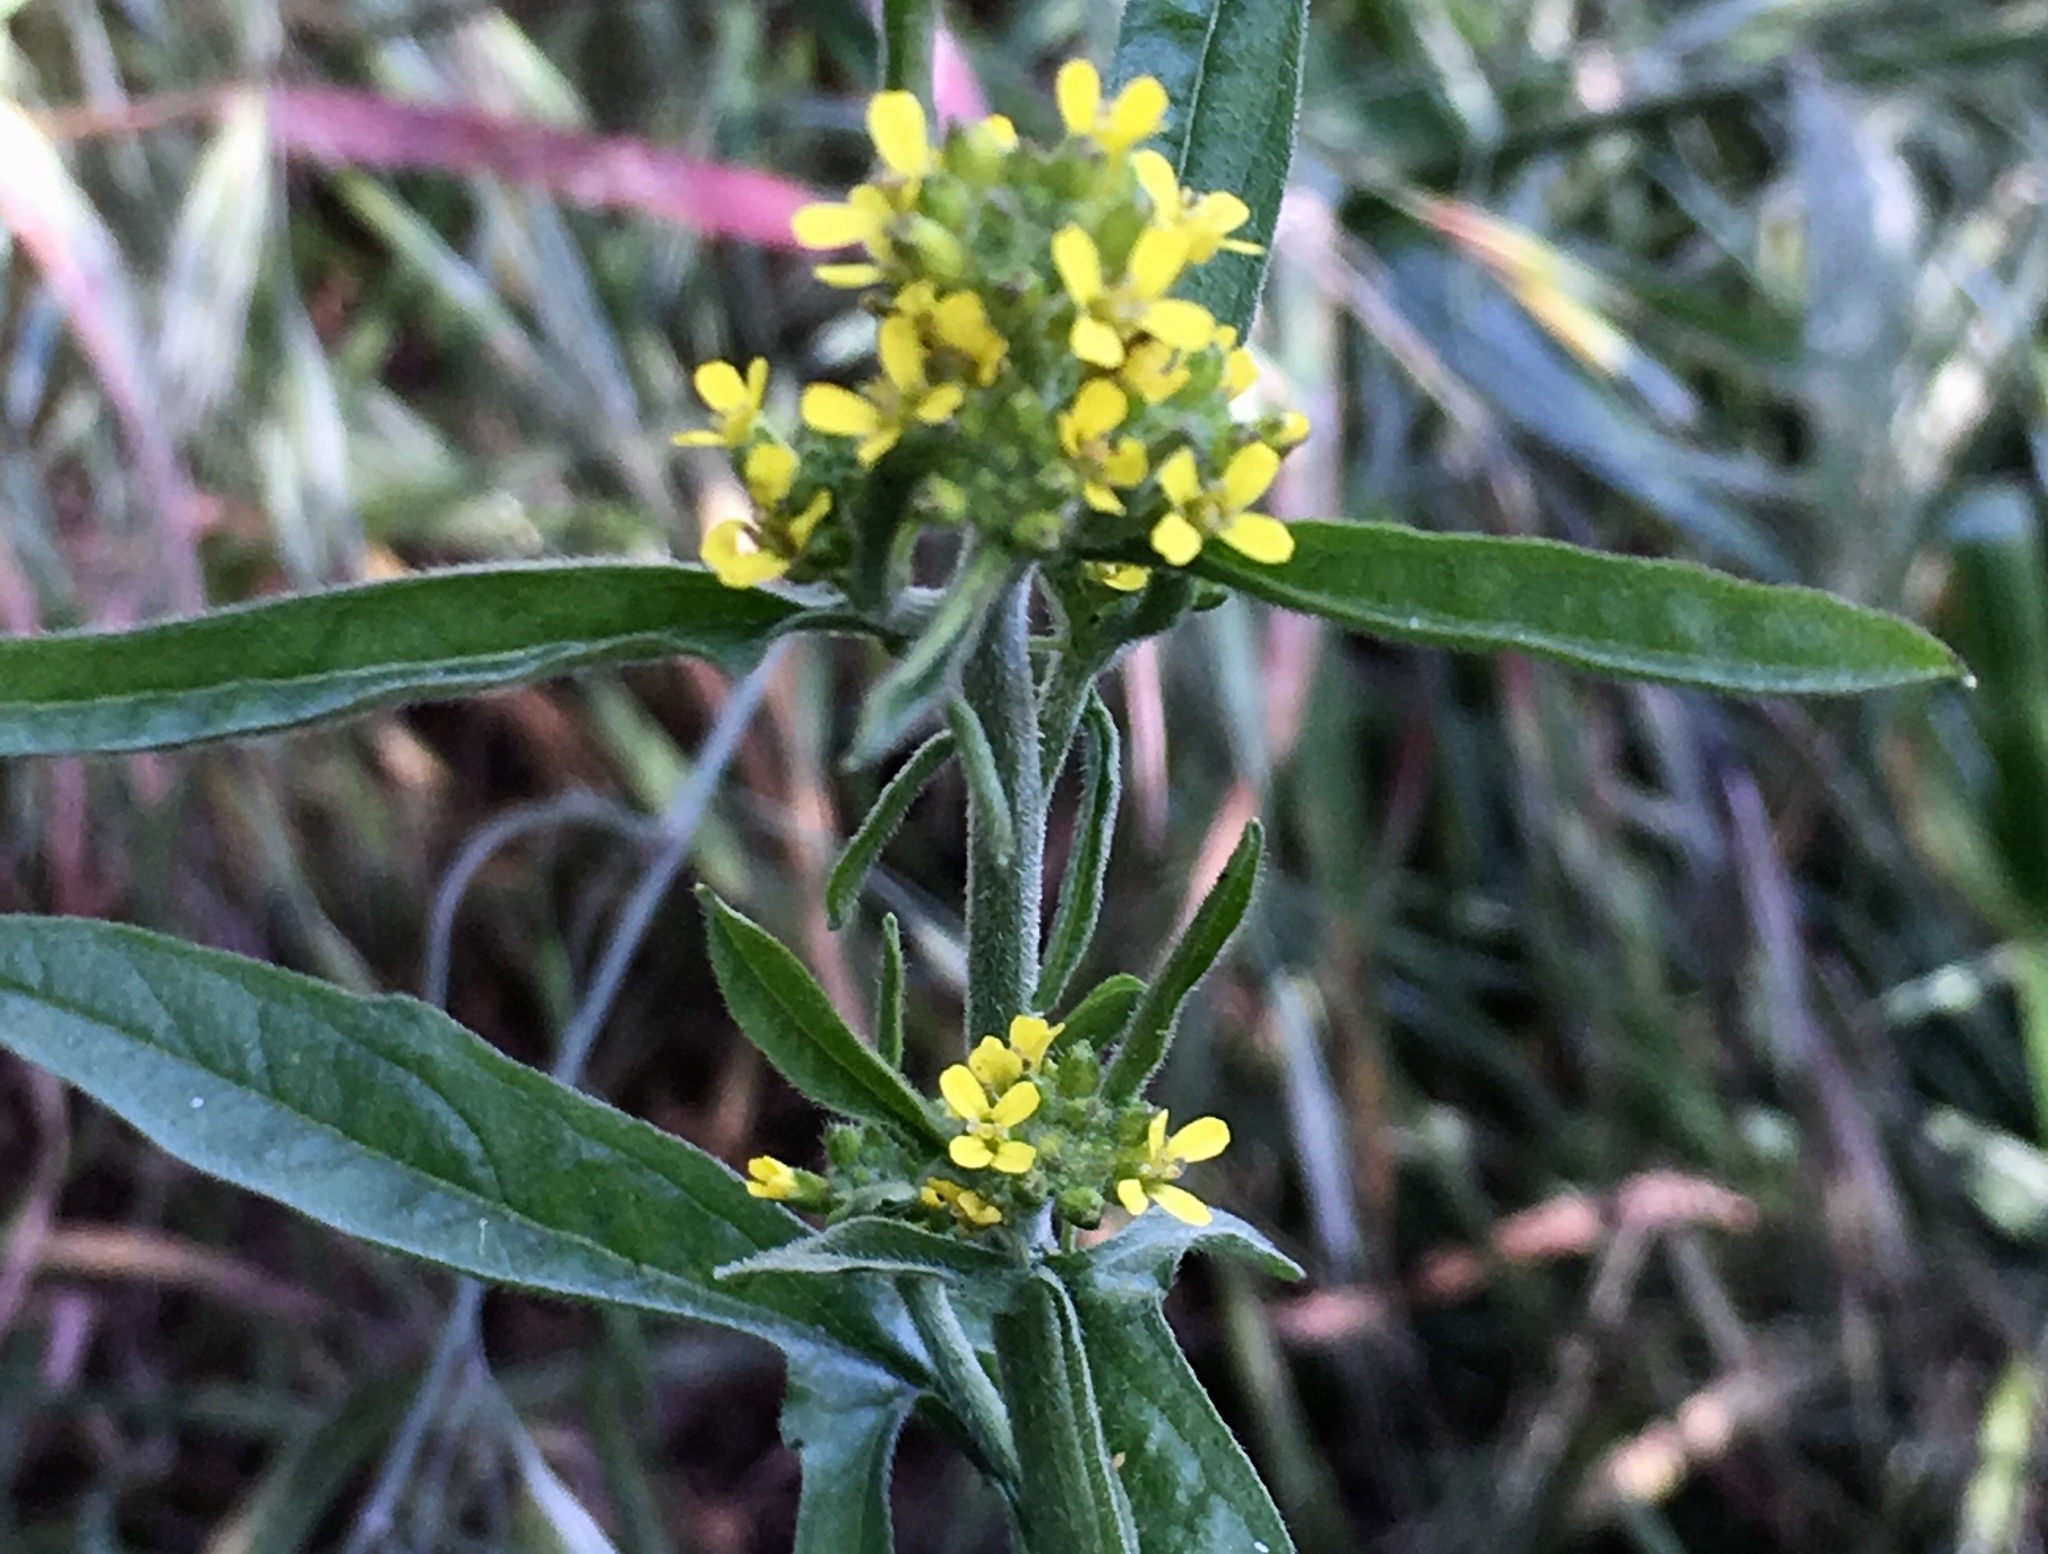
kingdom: Plantae
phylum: Tracheophyta
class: Magnoliopsida
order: Brassicales
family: Brassicaceae
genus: Sisymbrium
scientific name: Sisymbrium officinale
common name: Hedge mustard
